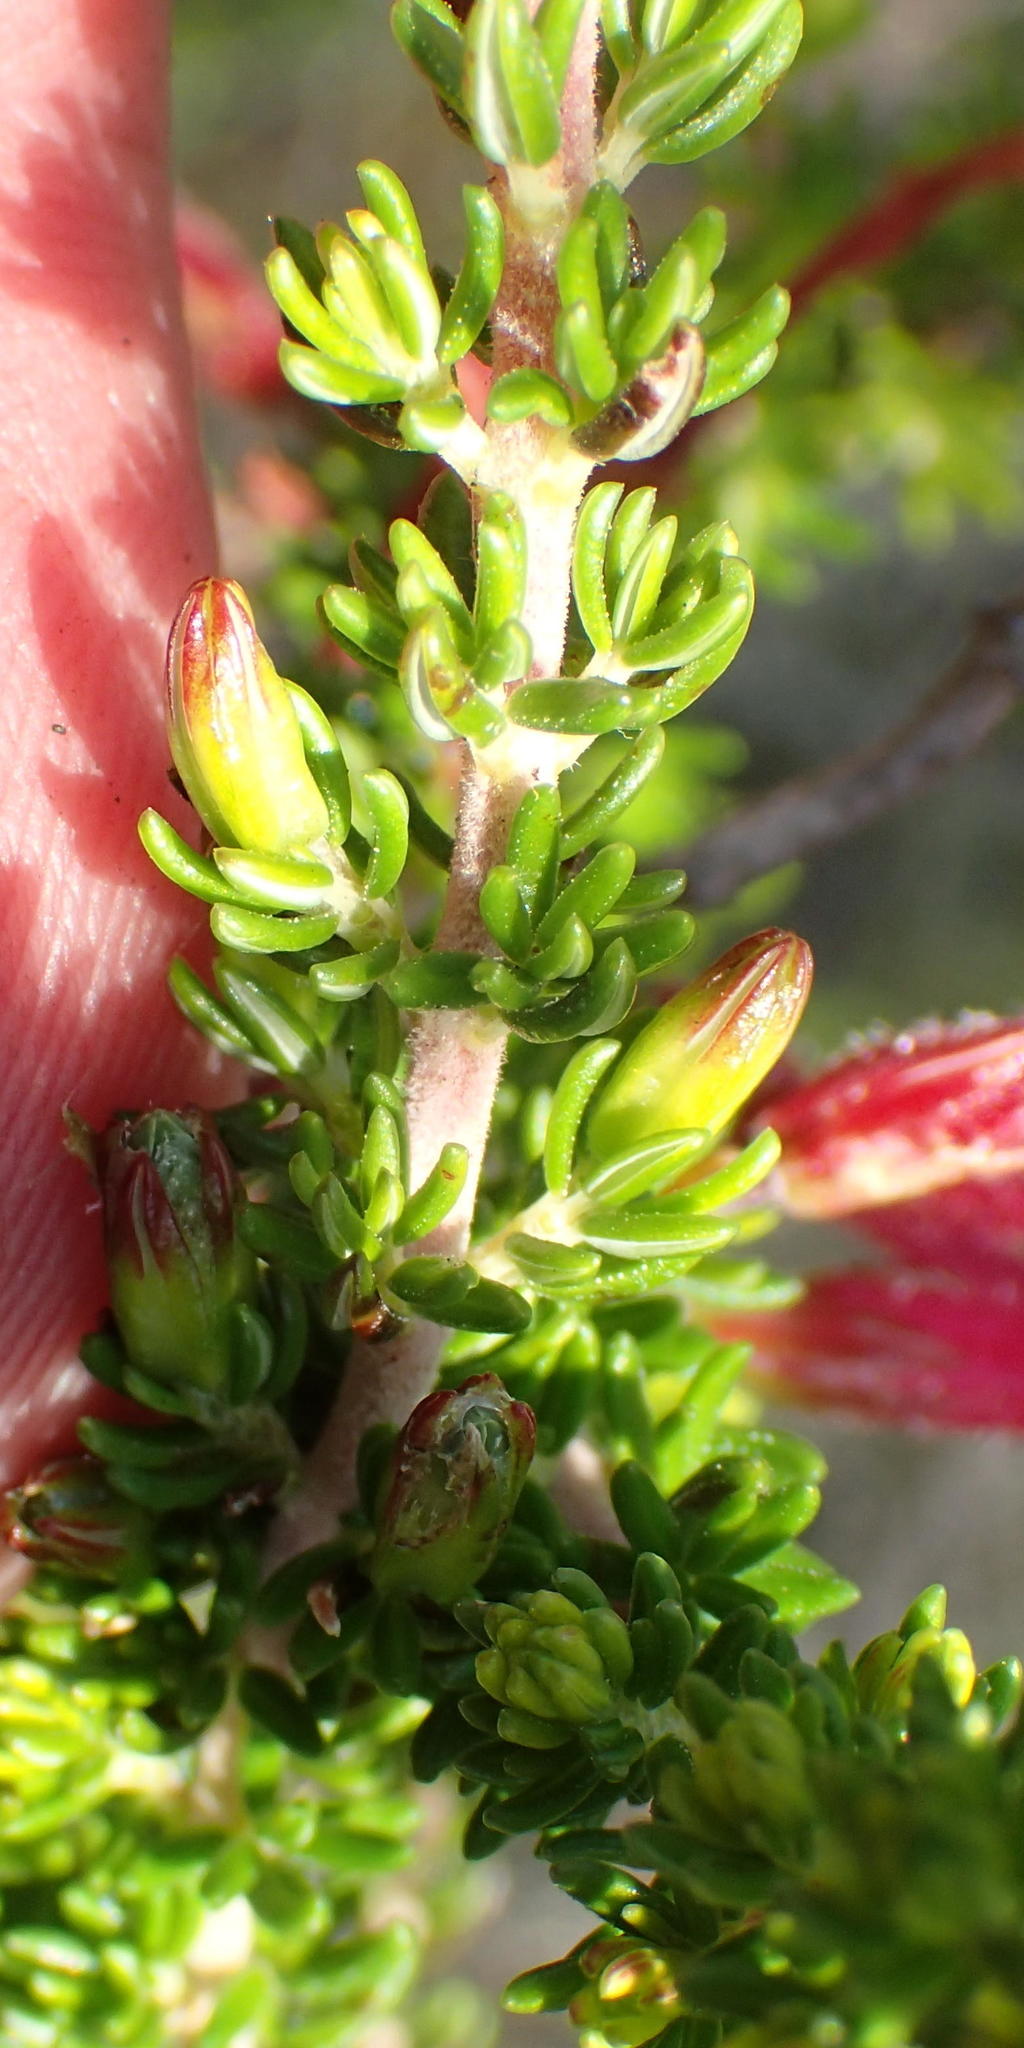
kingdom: Plantae
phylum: Tracheophyta
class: Magnoliopsida
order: Ericales
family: Ericaceae
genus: Erica
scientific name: Erica densifolia
